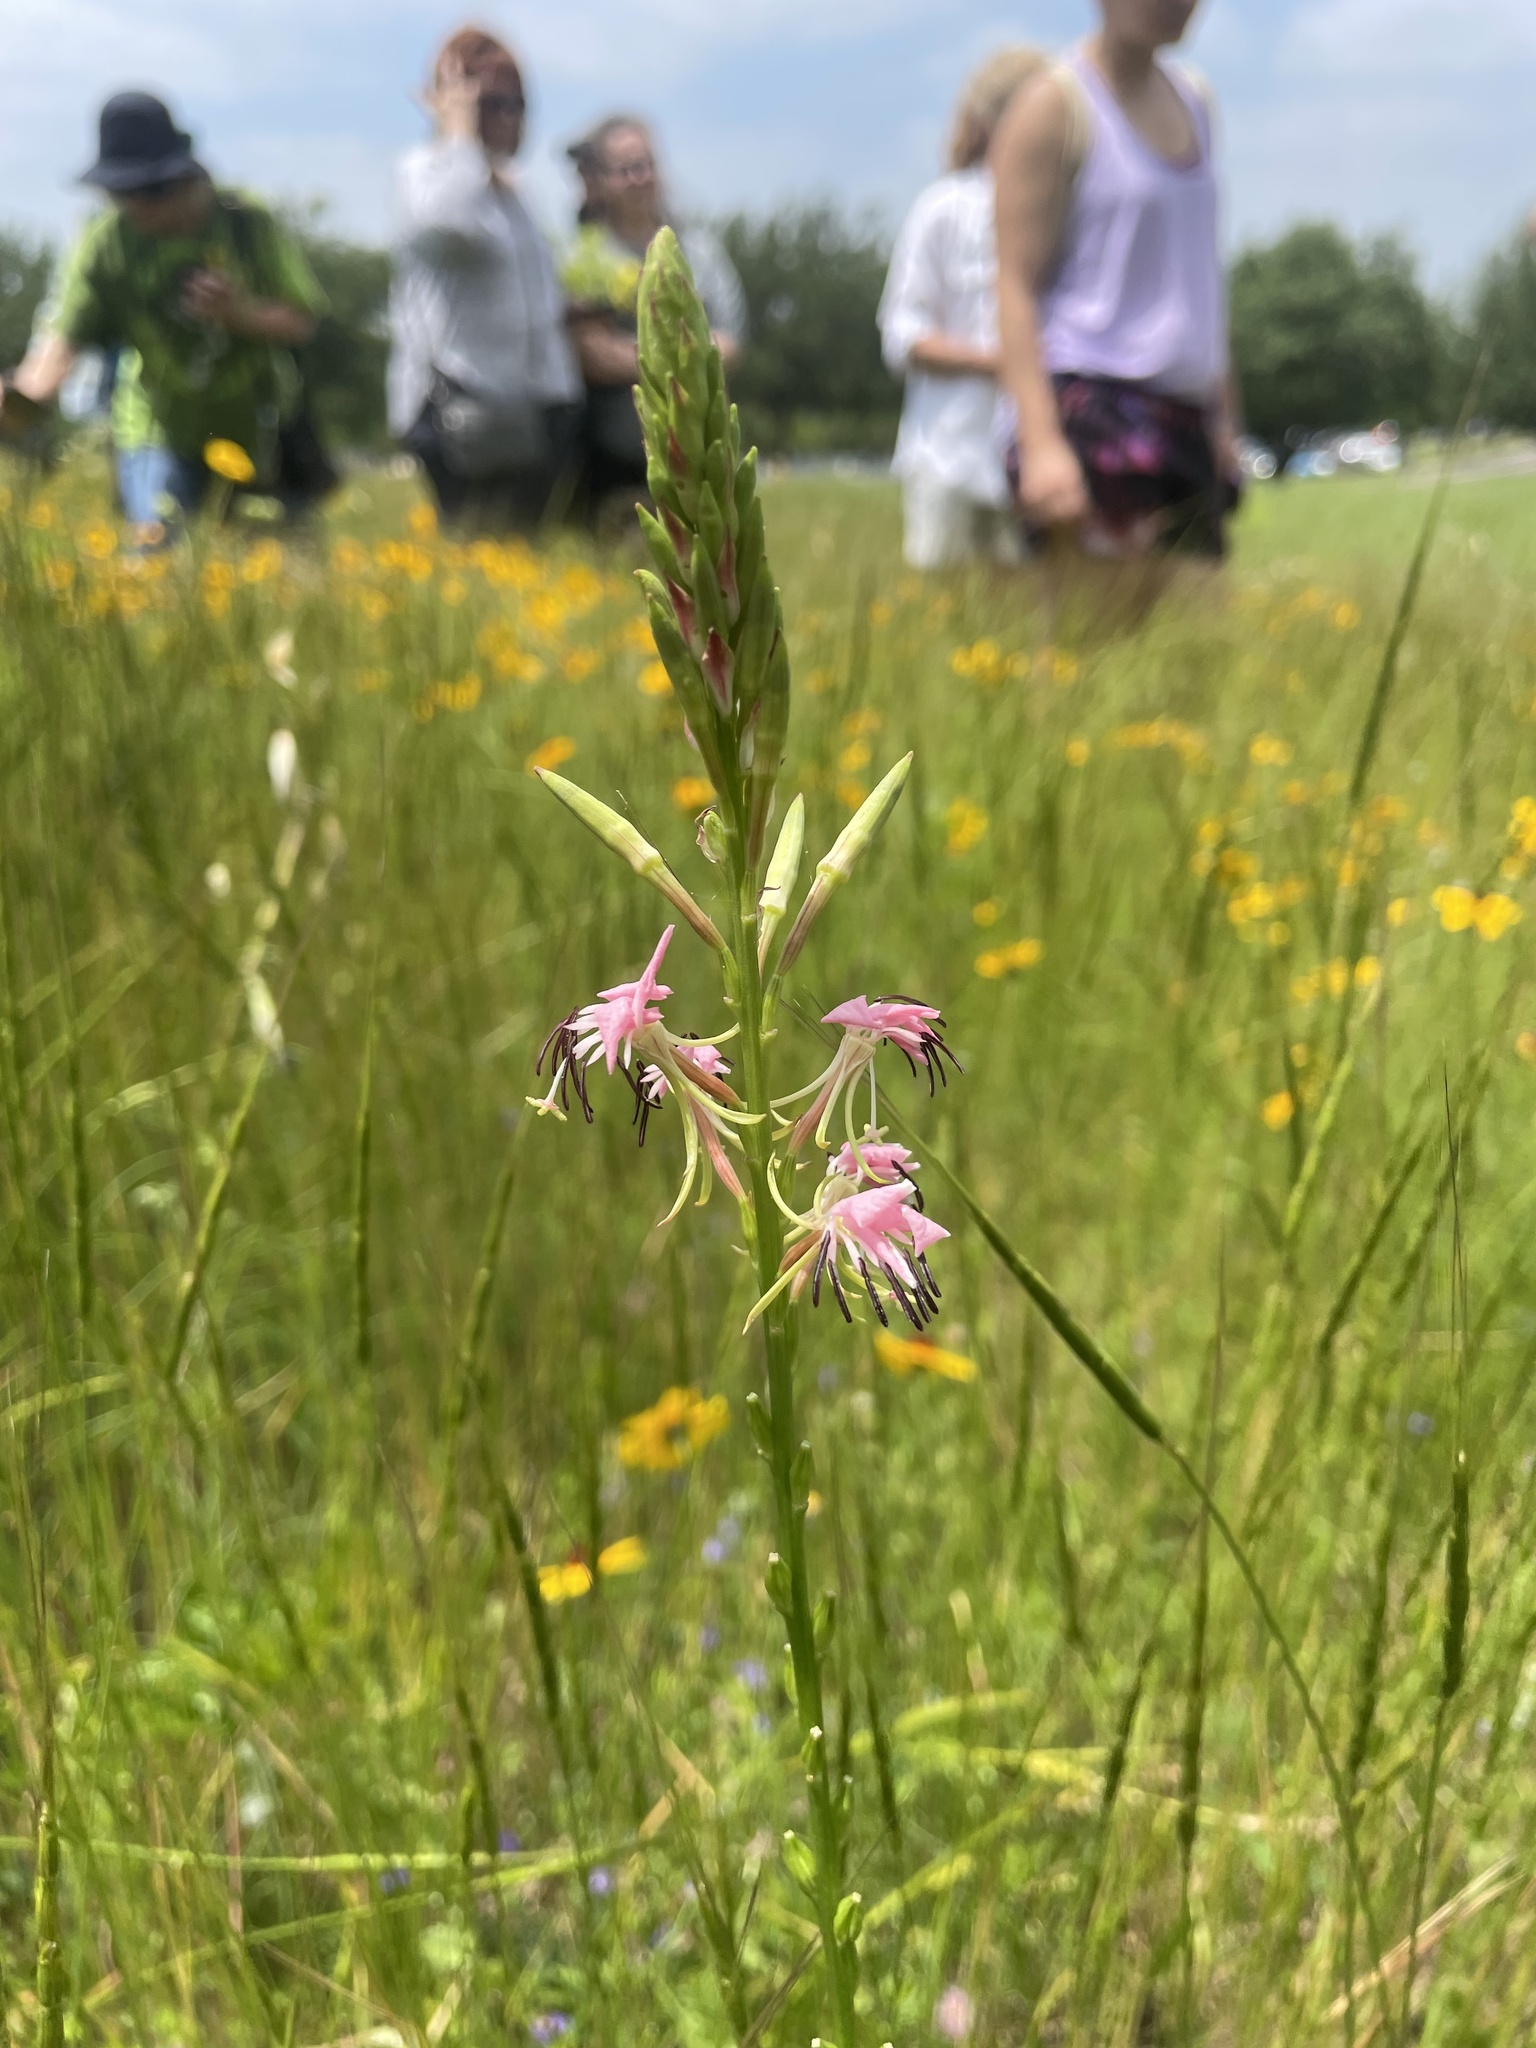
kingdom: Plantae
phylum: Tracheophyta
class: Magnoliopsida
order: Myrtales
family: Onagraceae
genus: Oenothera
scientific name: Oenothera suffulta
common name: Kisses
